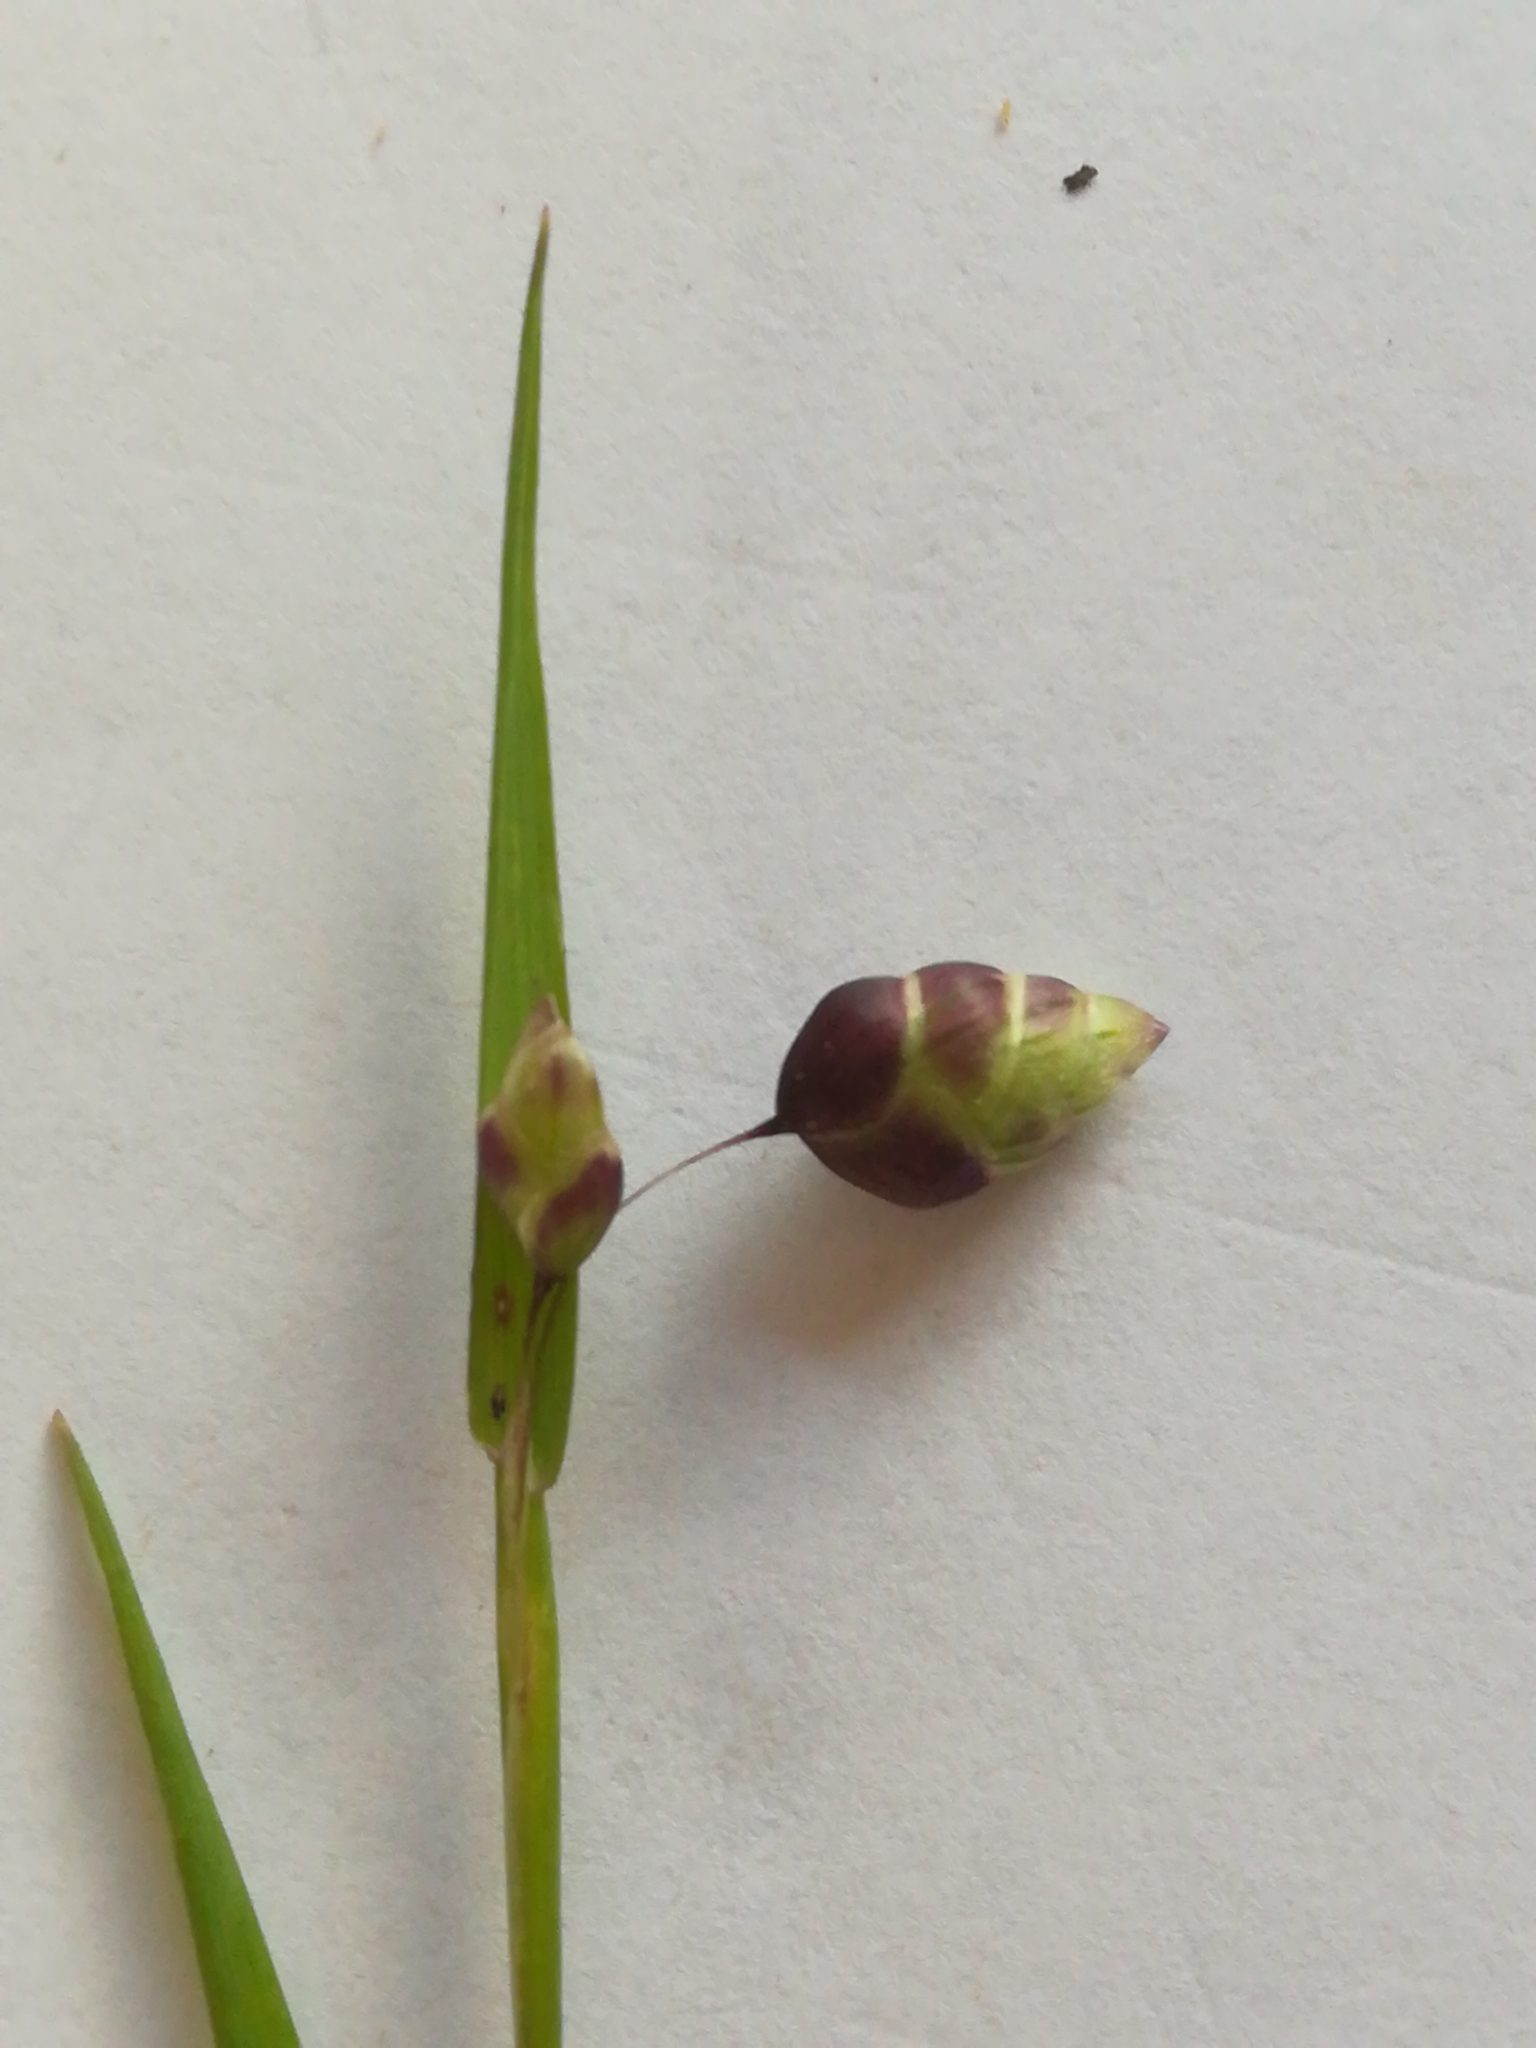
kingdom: Plantae
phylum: Tracheophyta
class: Liliopsida
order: Poales
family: Poaceae
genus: Briza
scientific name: Briza maxima
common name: Big quakinggrass
